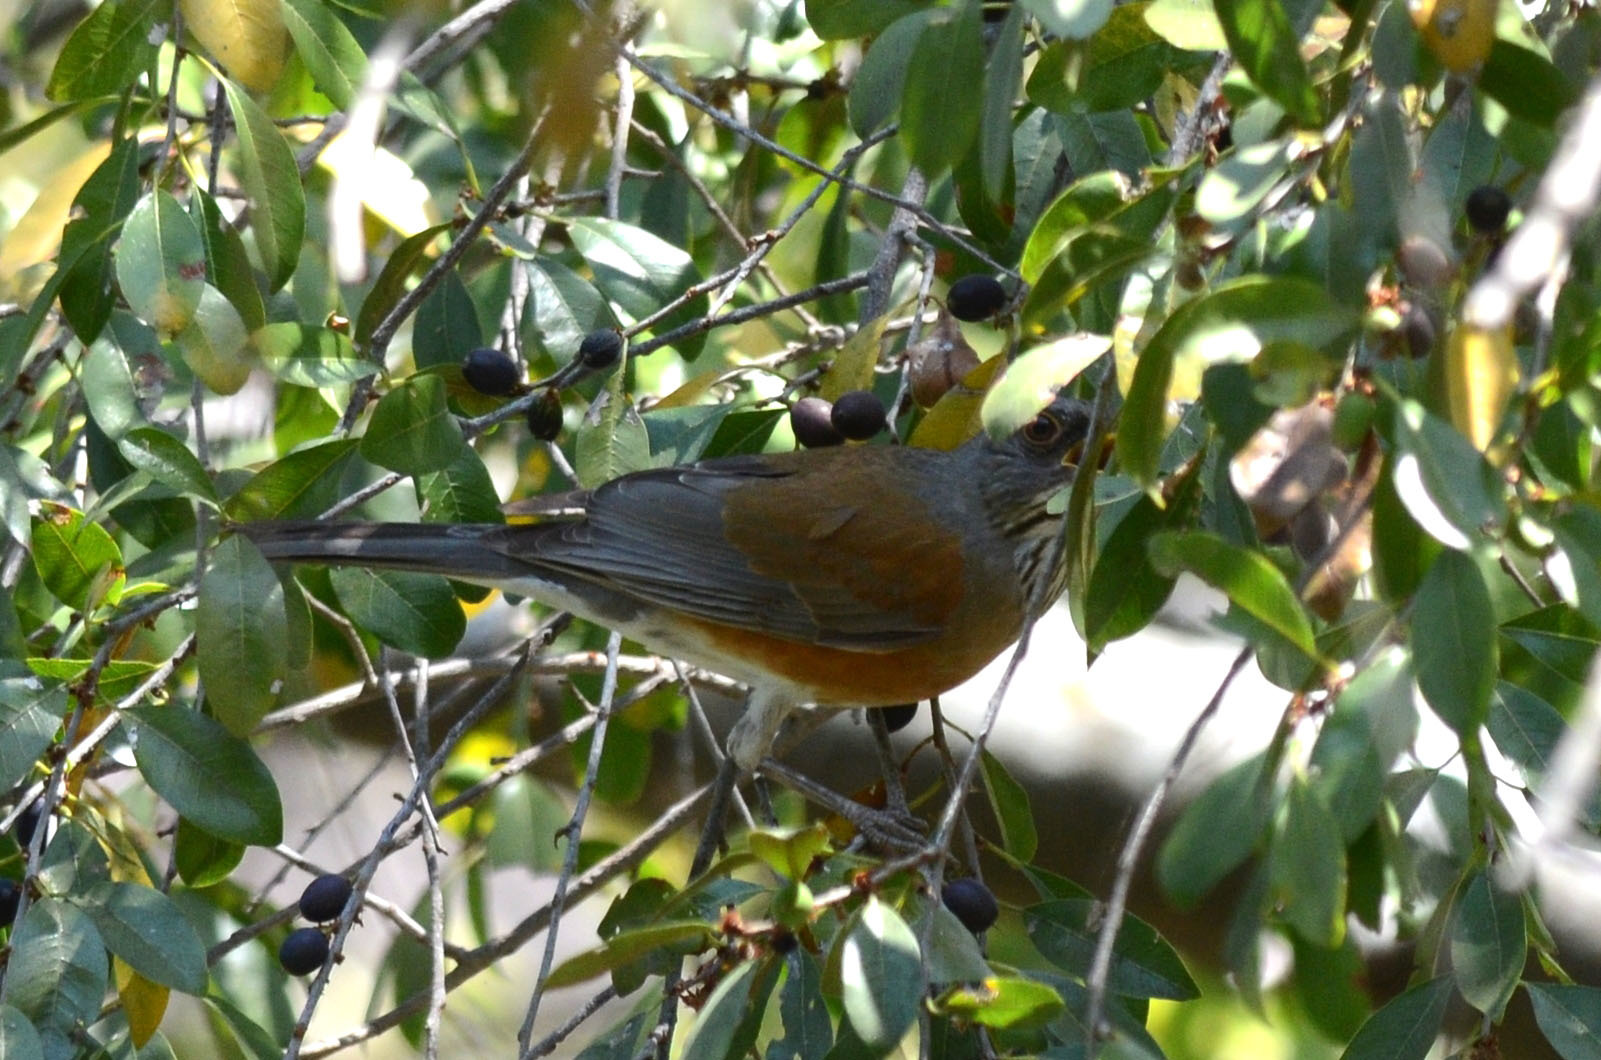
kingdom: Animalia
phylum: Chordata
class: Aves
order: Passeriformes
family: Turdidae
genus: Turdus
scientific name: Turdus rufopalliatus
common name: Rufous-backed robin
